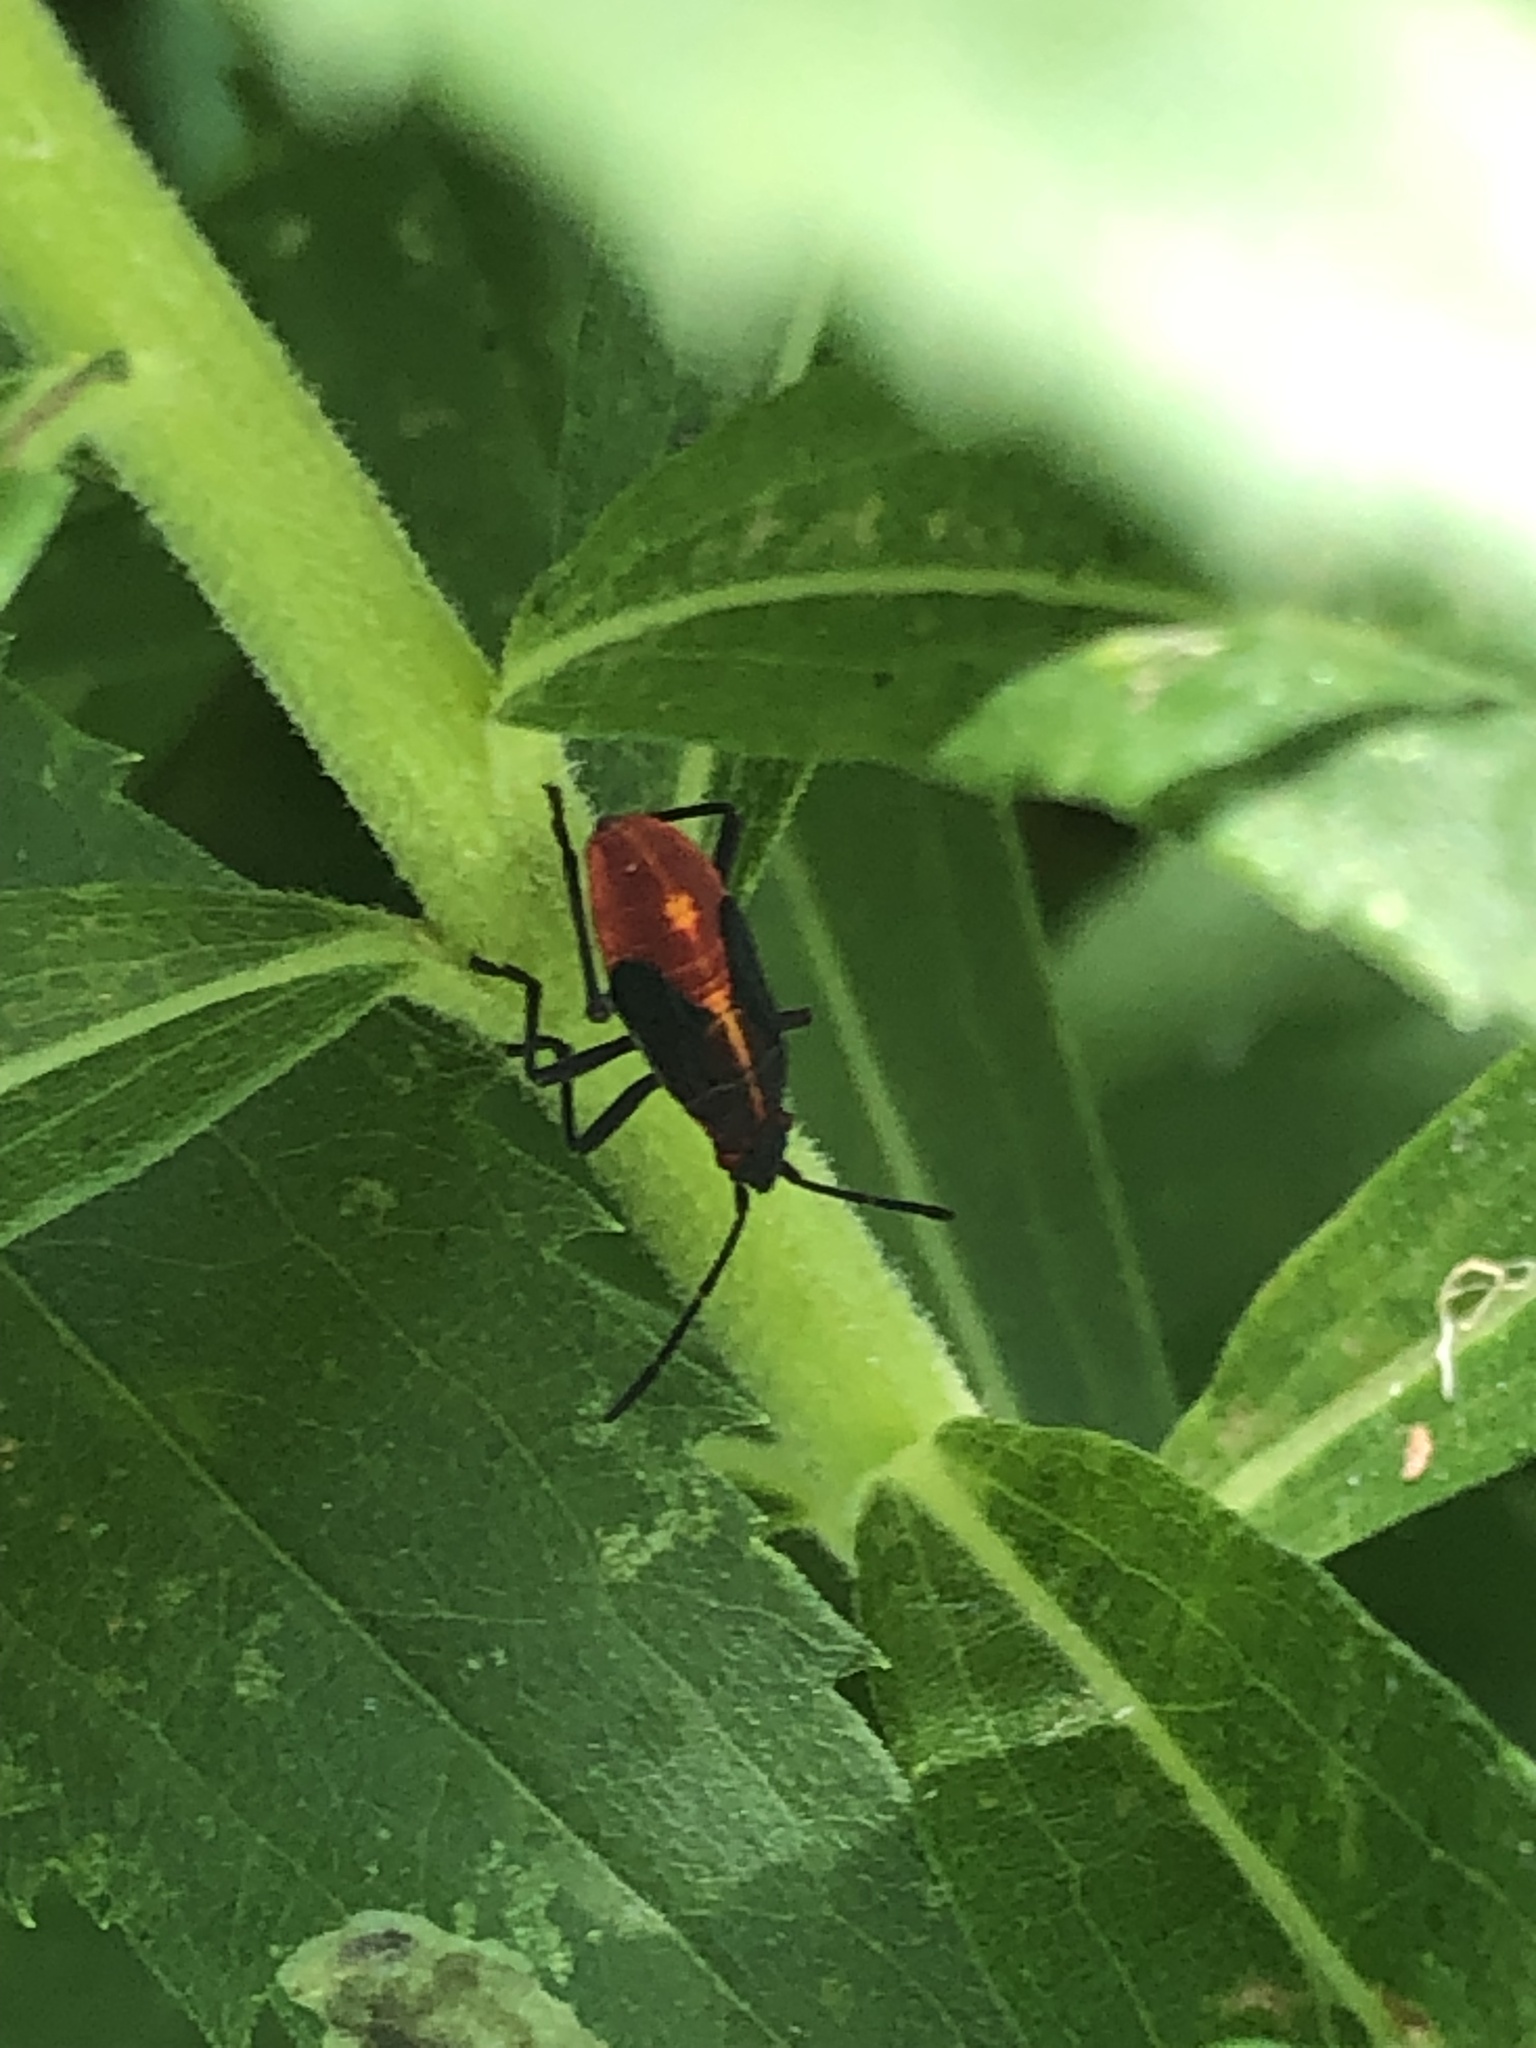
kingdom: Animalia
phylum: Arthropoda
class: Insecta
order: Hemiptera
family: Rhopalidae
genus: Boisea
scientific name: Boisea trivittata
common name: Boxelder bug
